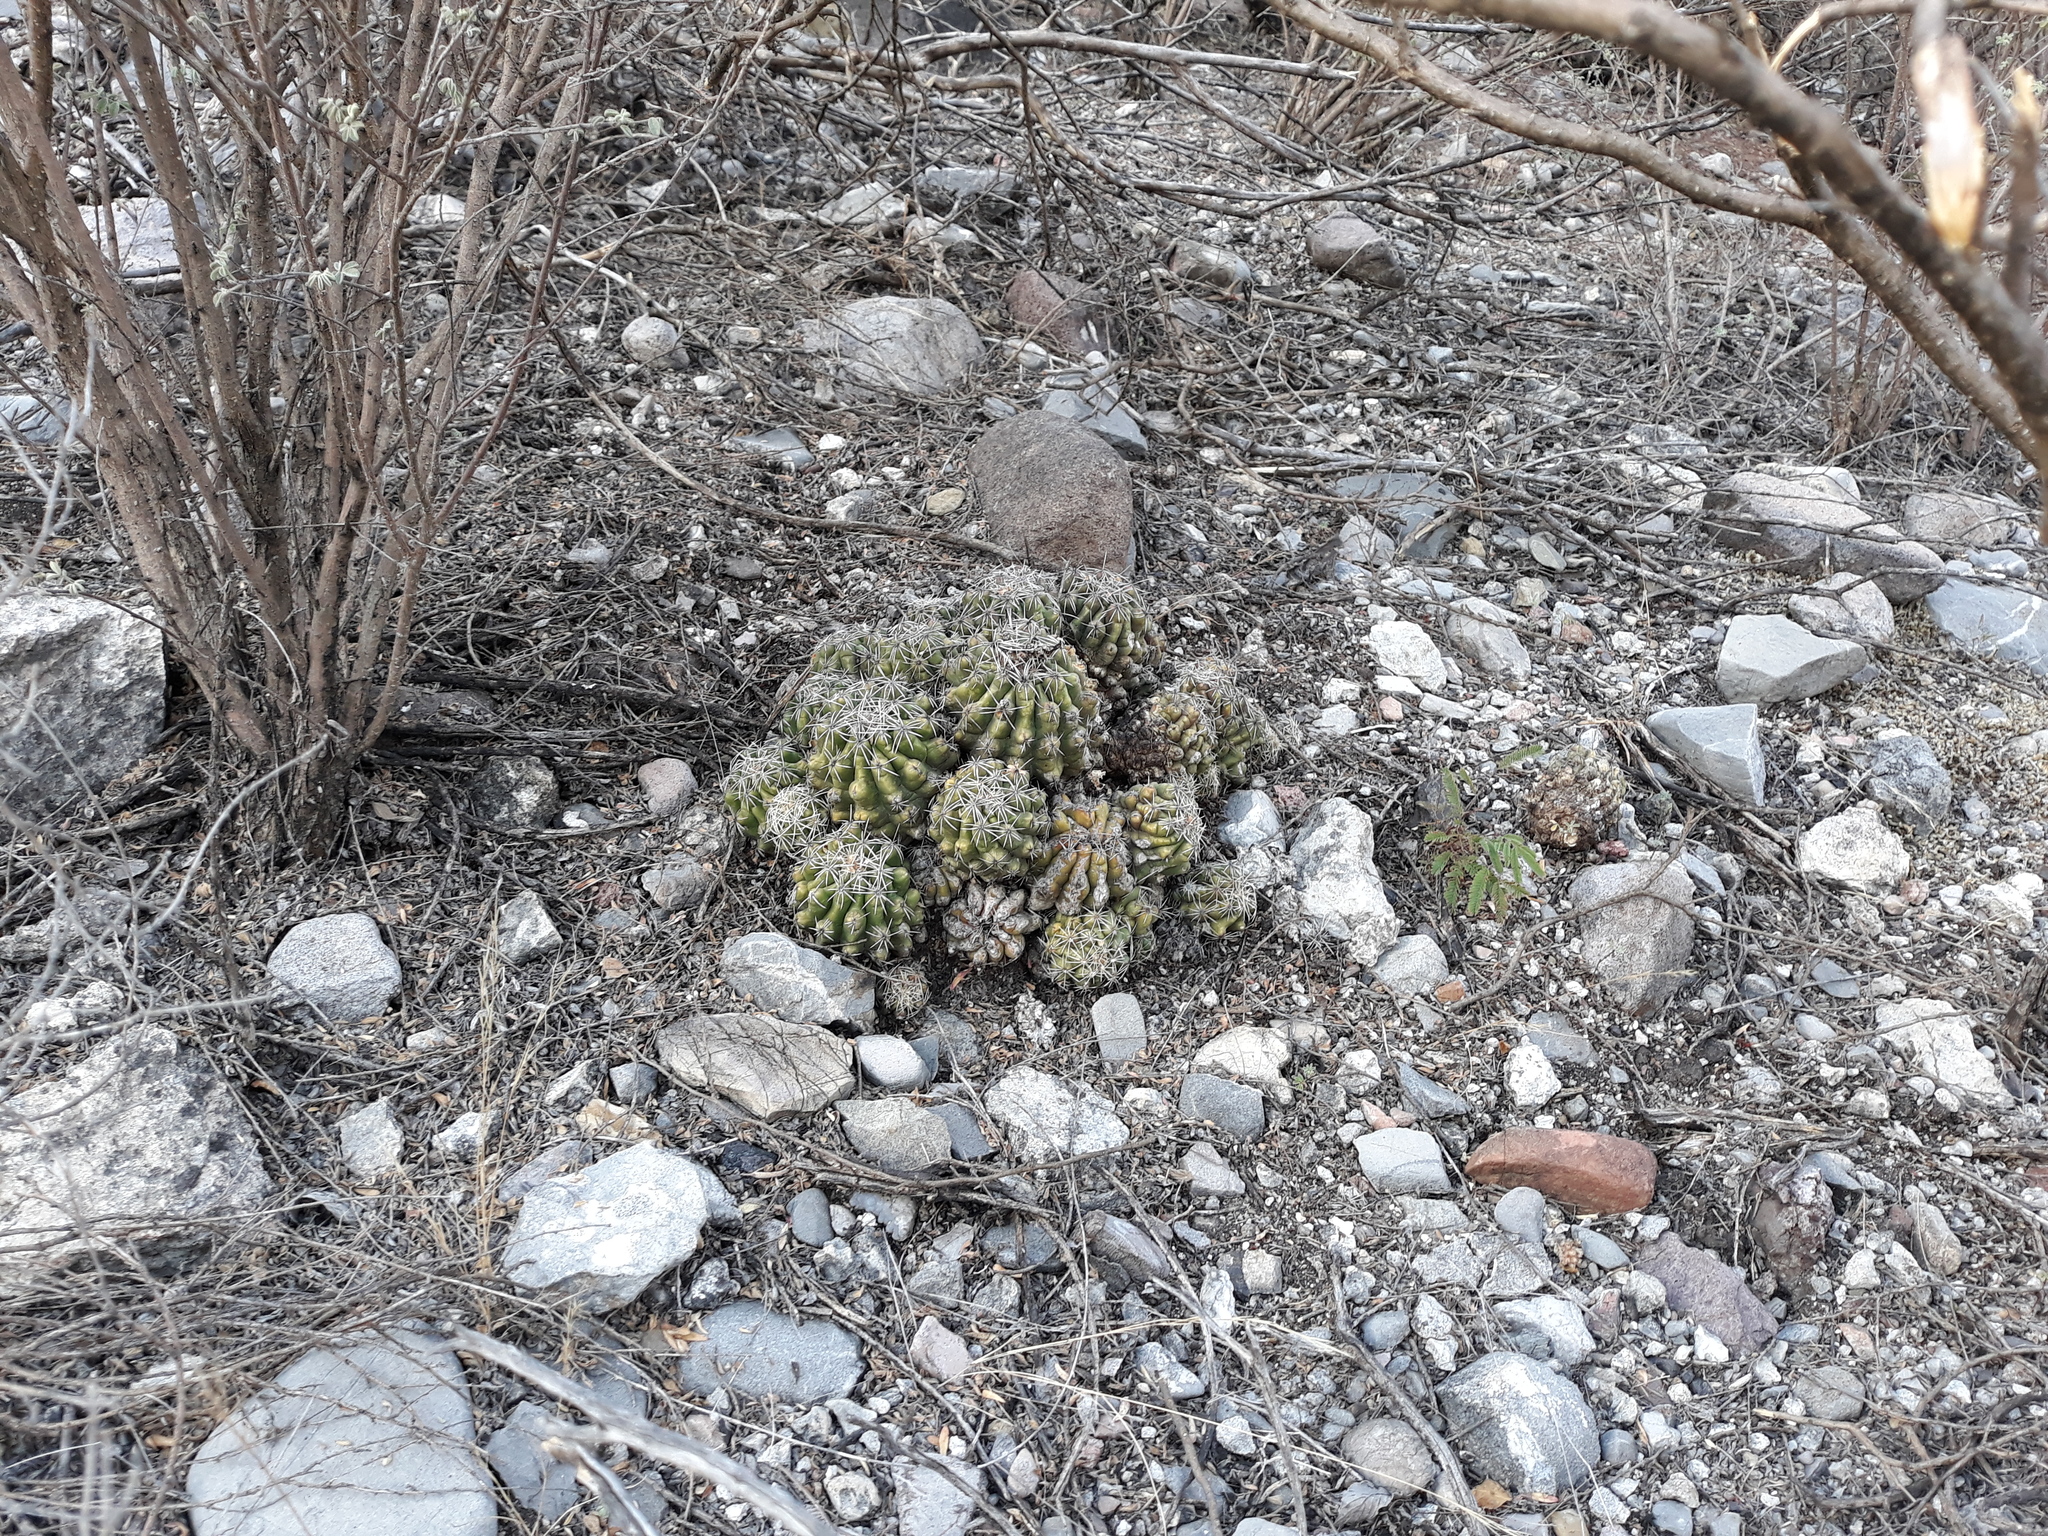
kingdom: Plantae
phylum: Tracheophyta
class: Magnoliopsida
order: Caryophyllales
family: Cactaceae
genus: Thelocactus
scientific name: Thelocactus leucacanthus
